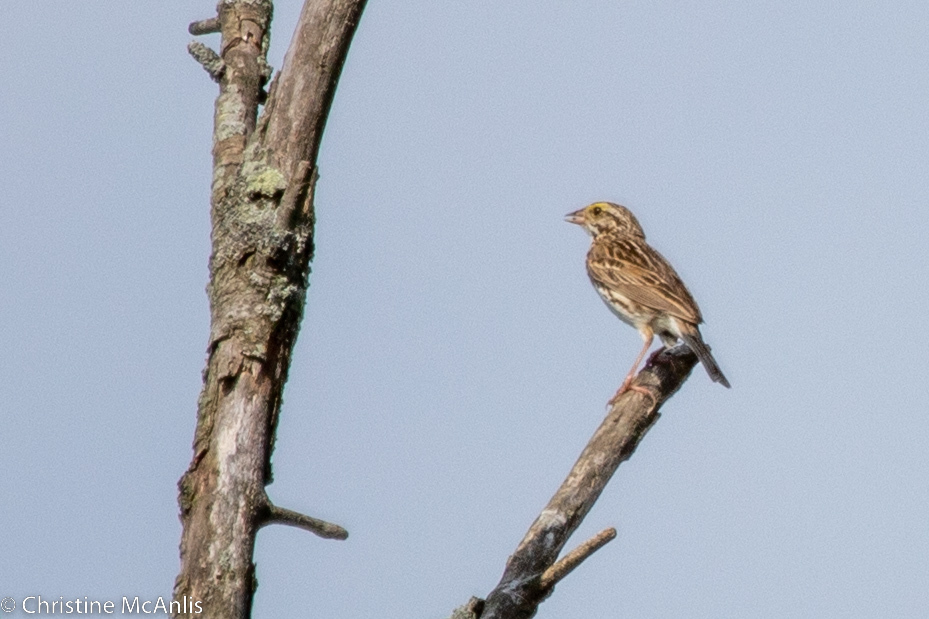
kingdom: Animalia
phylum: Chordata
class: Aves
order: Passeriformes
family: Passerellidae
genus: Passerculus
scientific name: Passerculus sandwichensis
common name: Savannah sparrow
